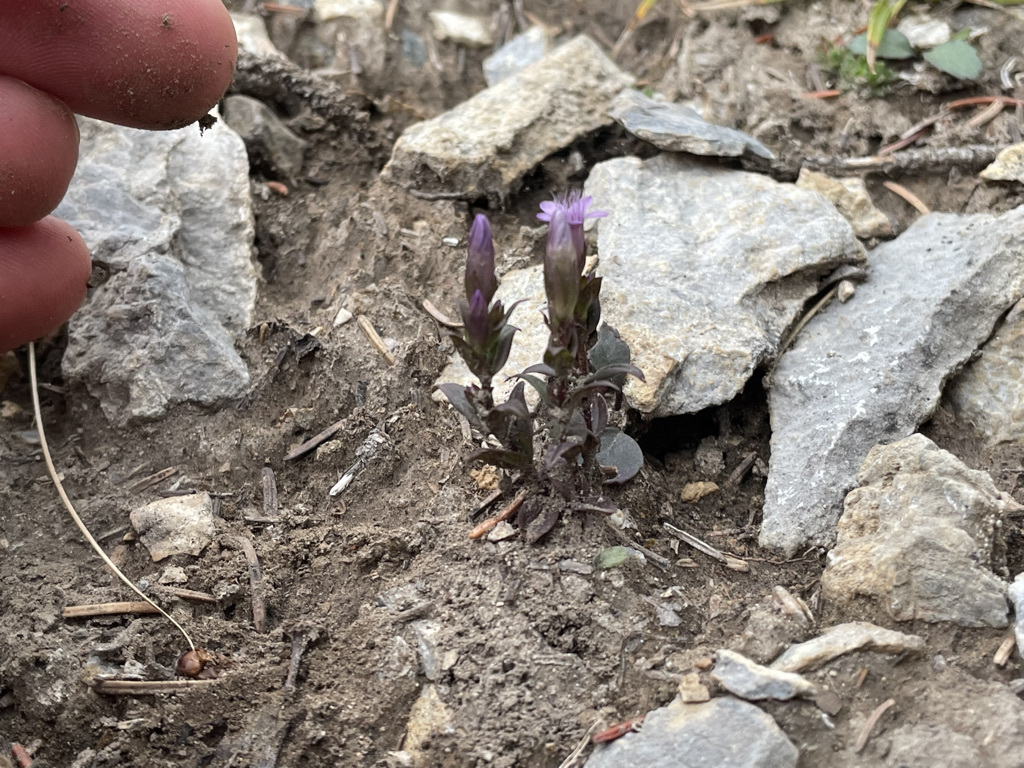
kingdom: Plantae
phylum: Tracheophyta
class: Magnoliopsida
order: Gentianales
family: Gentianaceae
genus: Gentianella
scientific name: Gentianella amarella
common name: Autumn gentian
